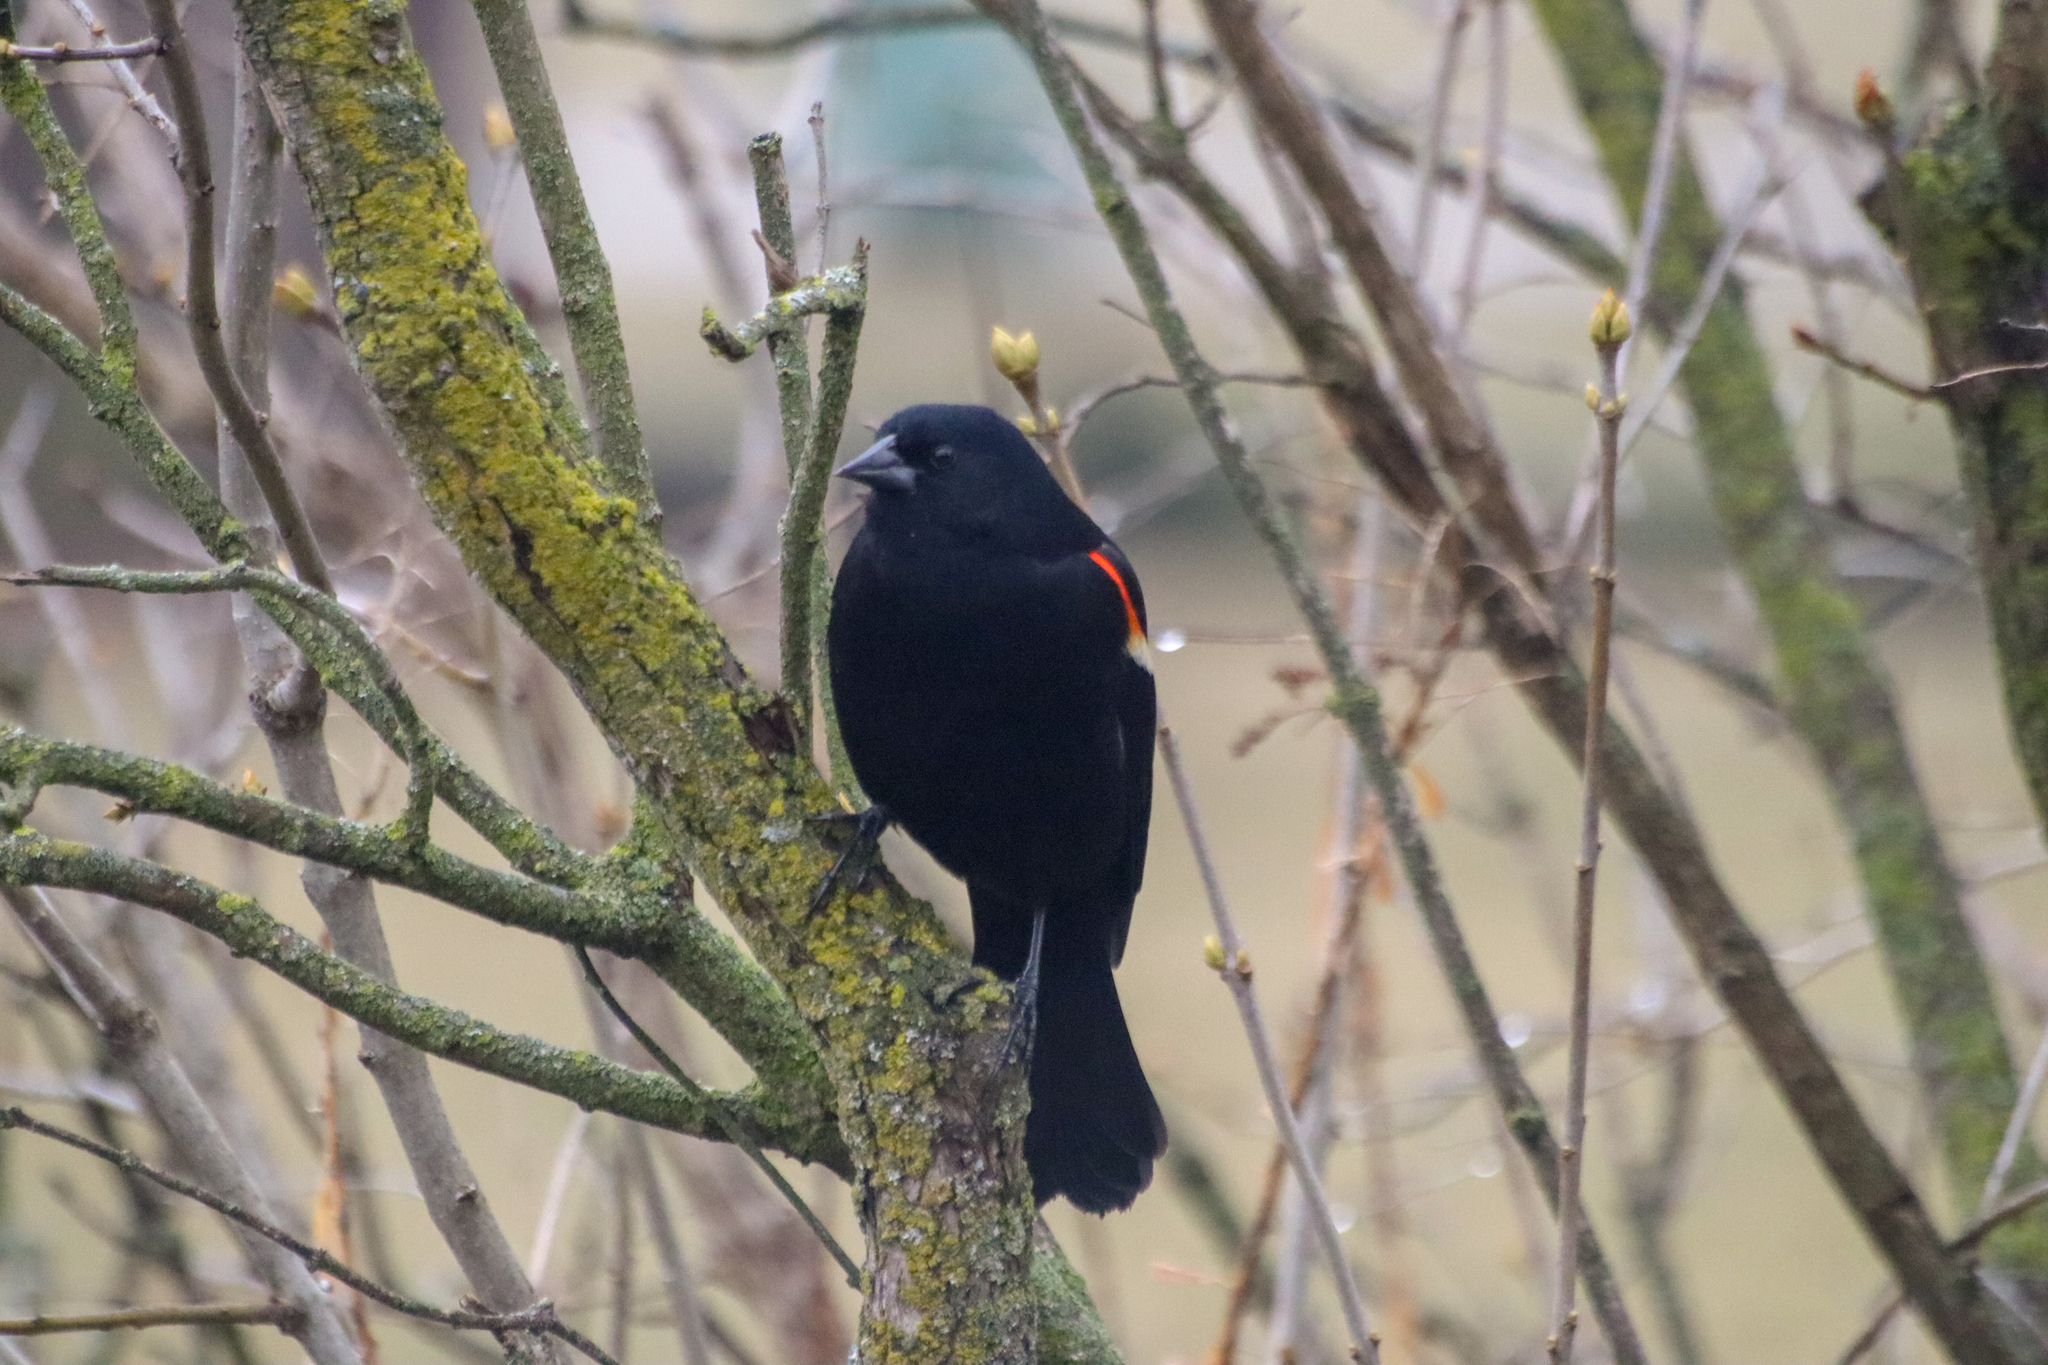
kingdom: Animalia
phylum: Chordata
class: Aves
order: Passeriformes
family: Icteridae
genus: Agelaius
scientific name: Agelaius phoeniceus
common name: Red-winged blackbird
